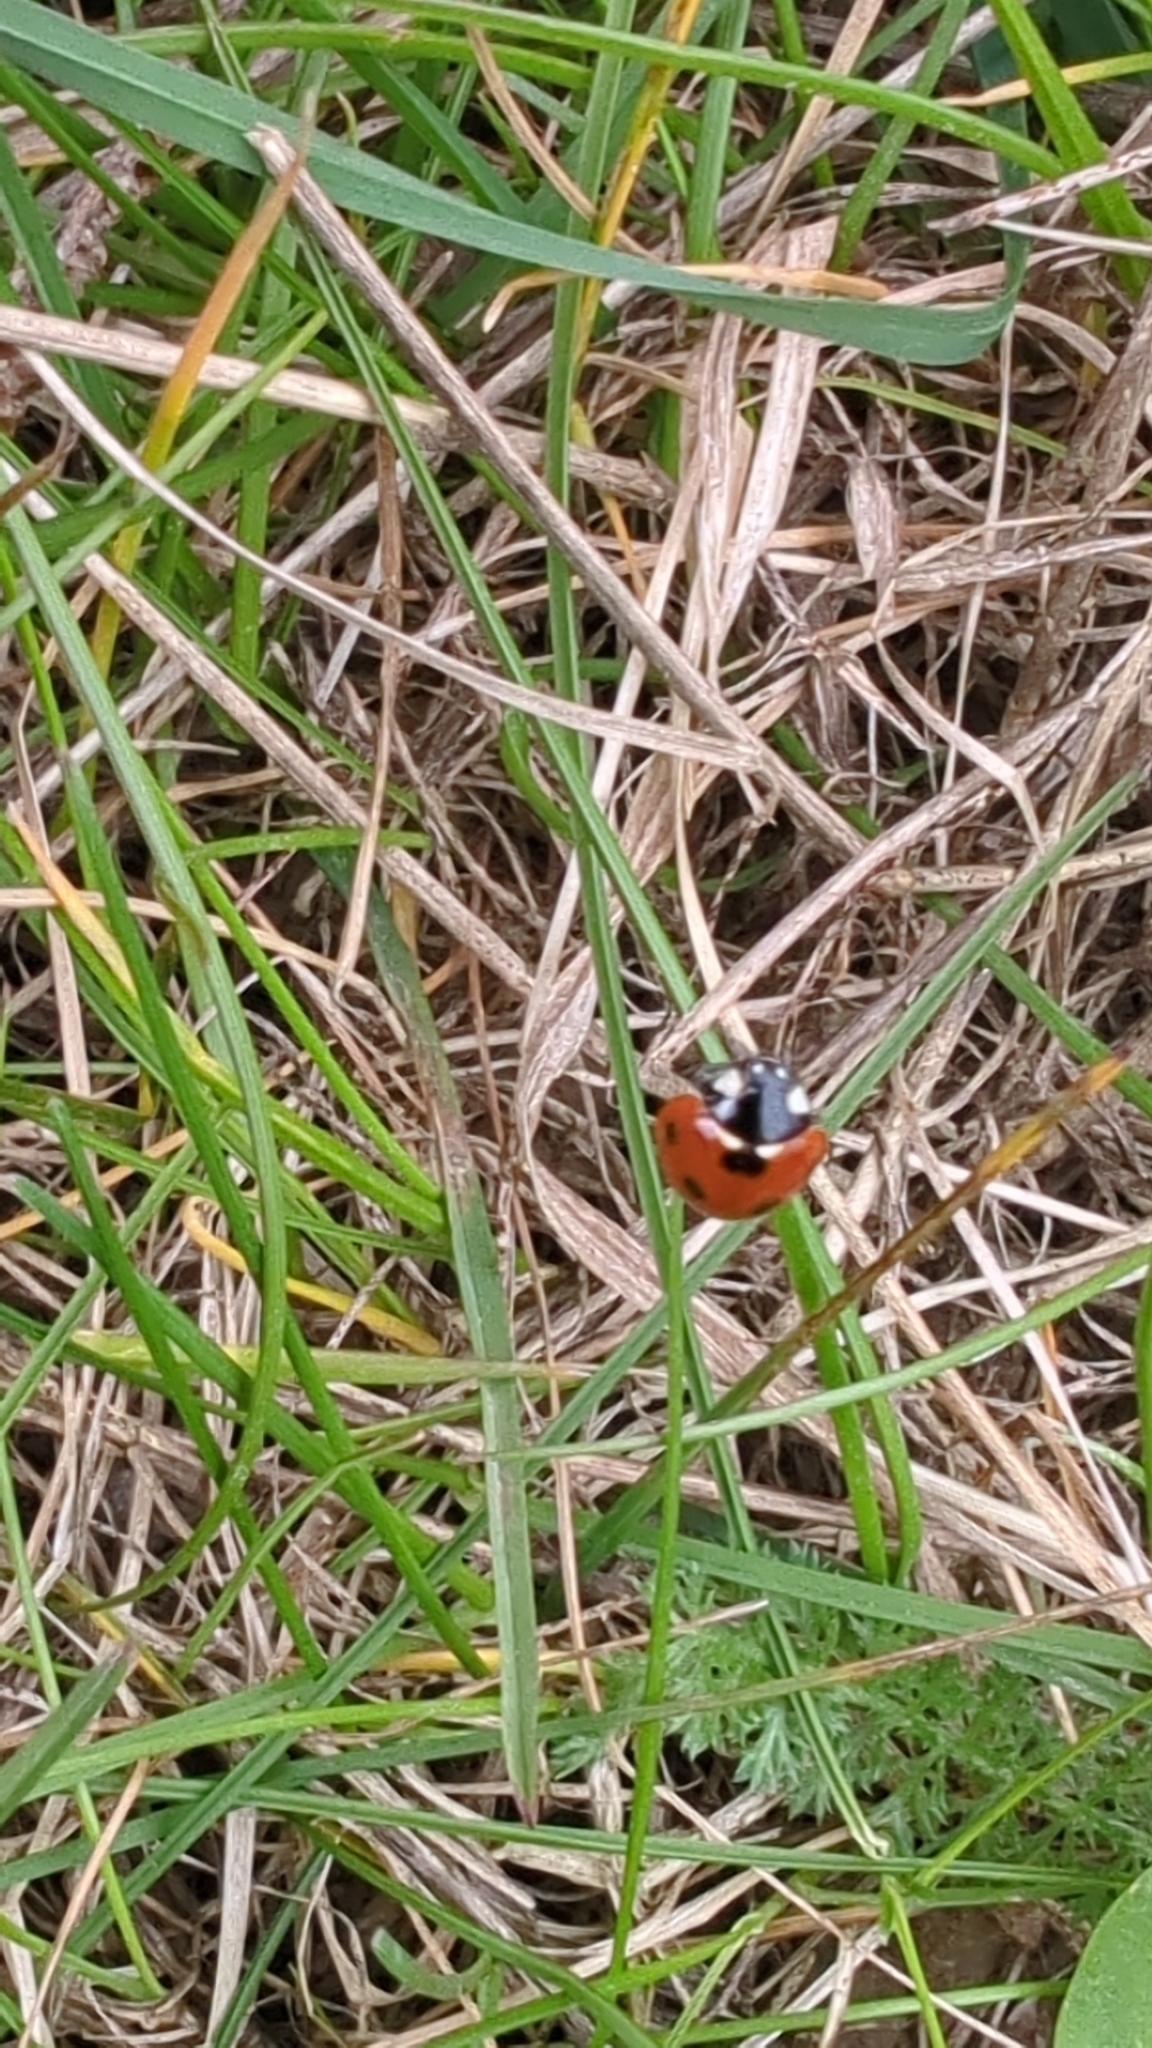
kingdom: Animalia
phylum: Arthropoda
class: Insecta
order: Coleoptera
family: Coccinellidae
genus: Coccinella
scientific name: Coccinella septempunctata
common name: Sevenspotted lady beetle
